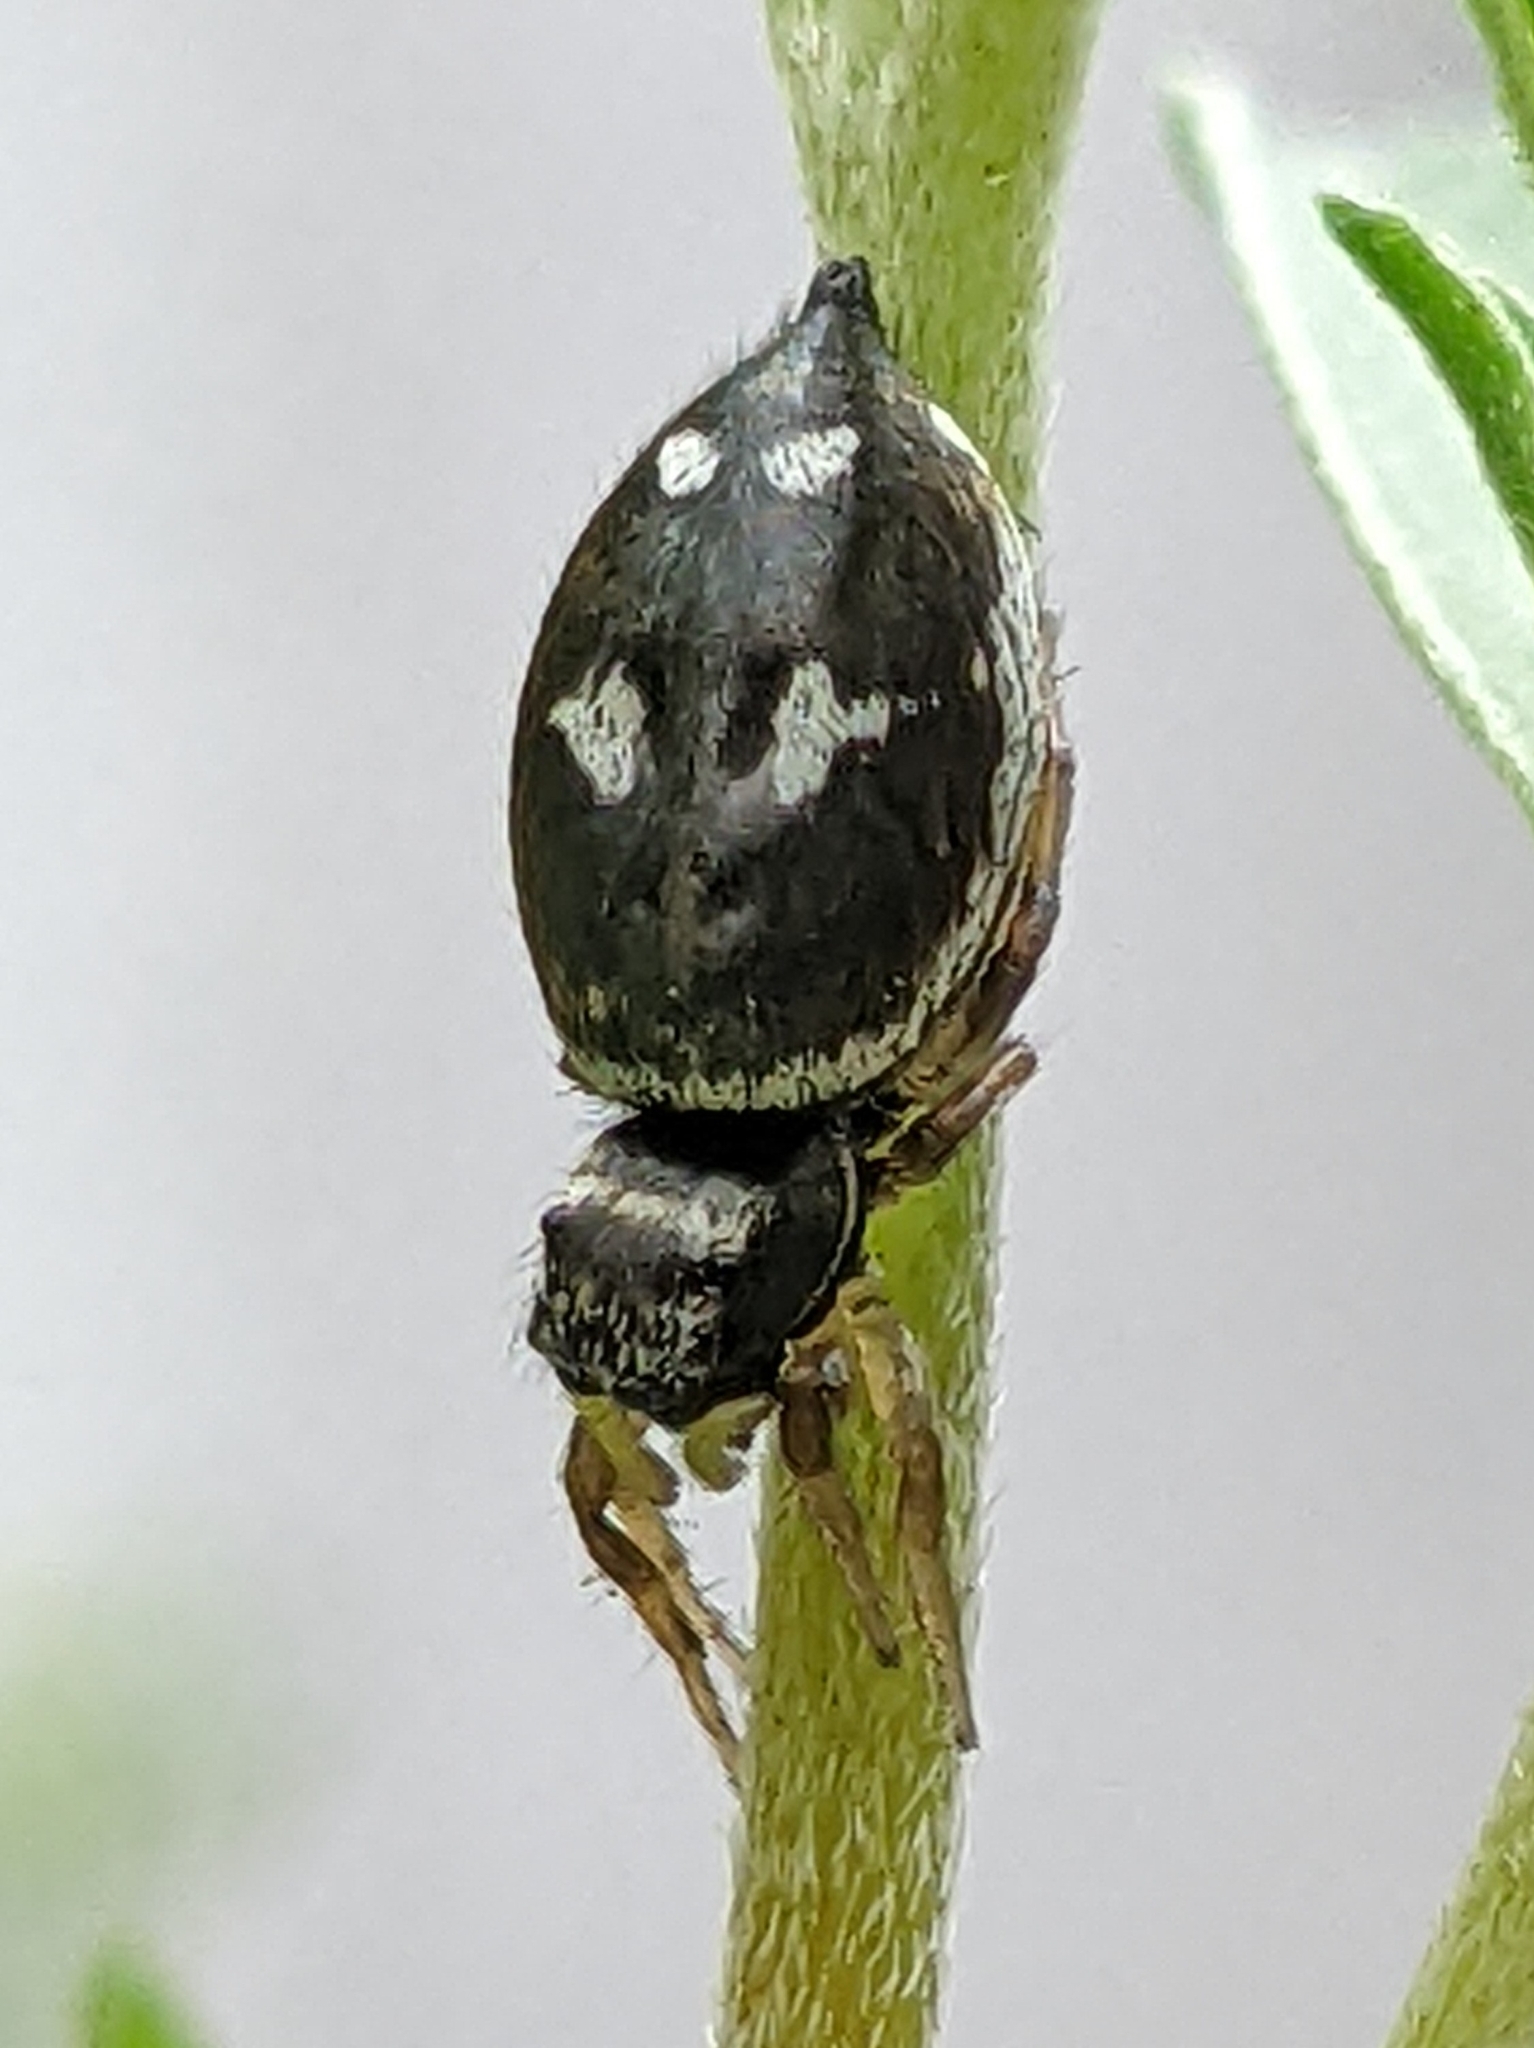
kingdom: Animalia
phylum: Arthropoda
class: Arachnida
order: Araneae
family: Salticidae
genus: Heliophanus
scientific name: Heliophanus apiatus
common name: Sun jumping spider
